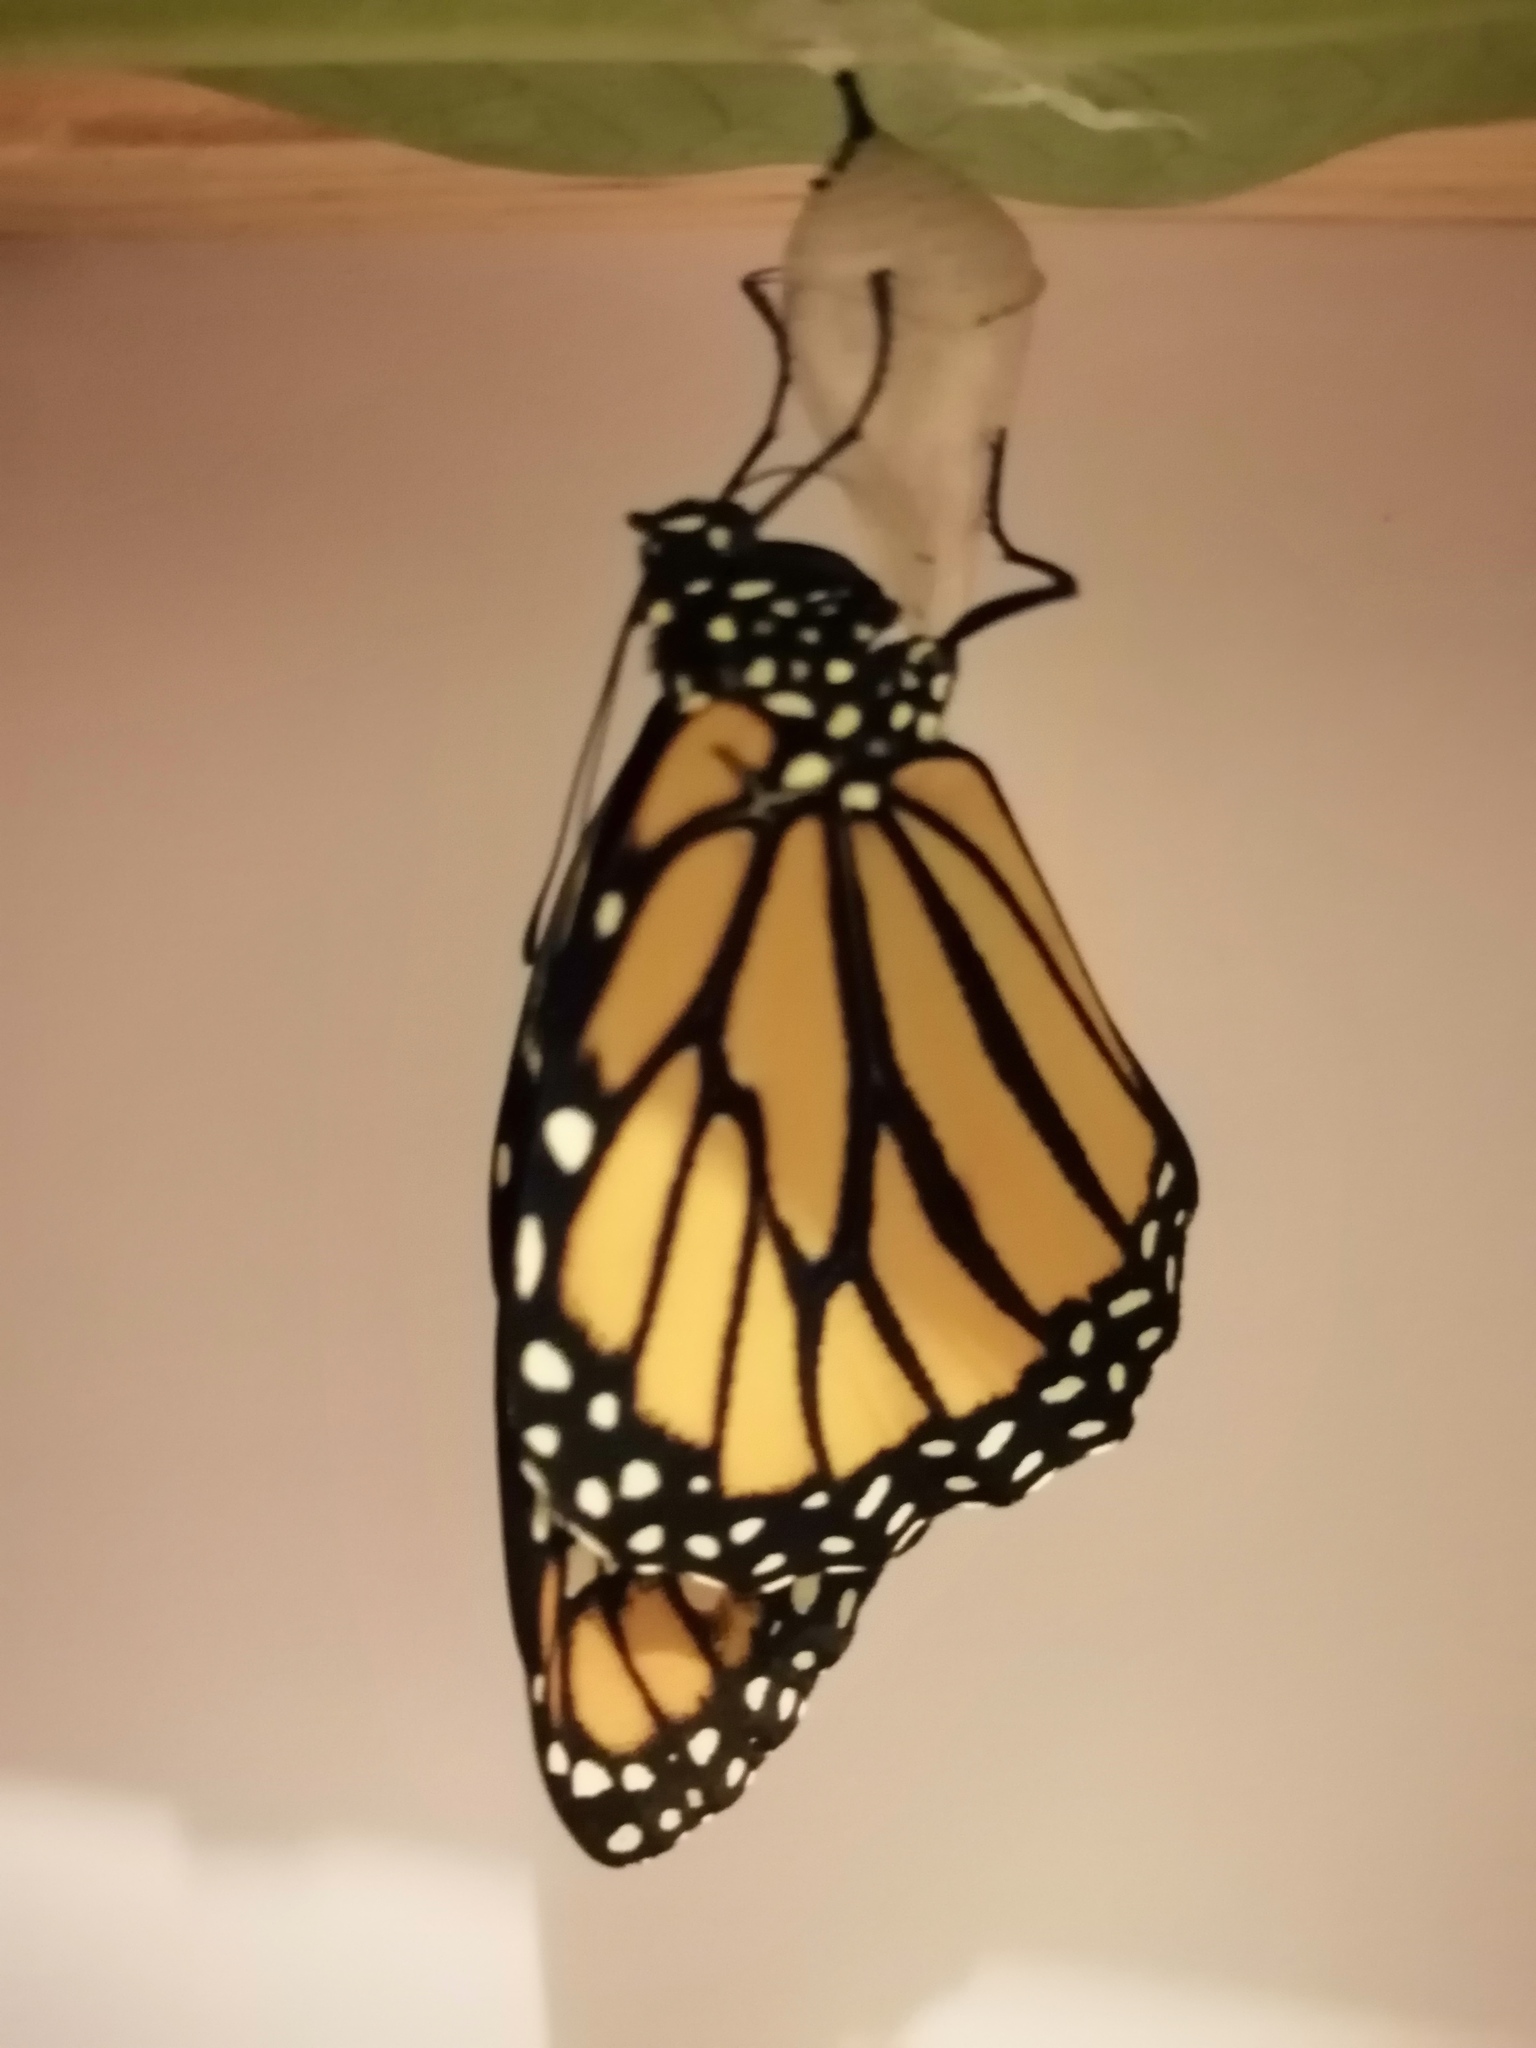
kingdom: Animalia
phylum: Arthropoda
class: Insecta
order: Lepidoptera
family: Nymphalidae
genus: Danaus
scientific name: Danaus plexippus
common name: Monarch
